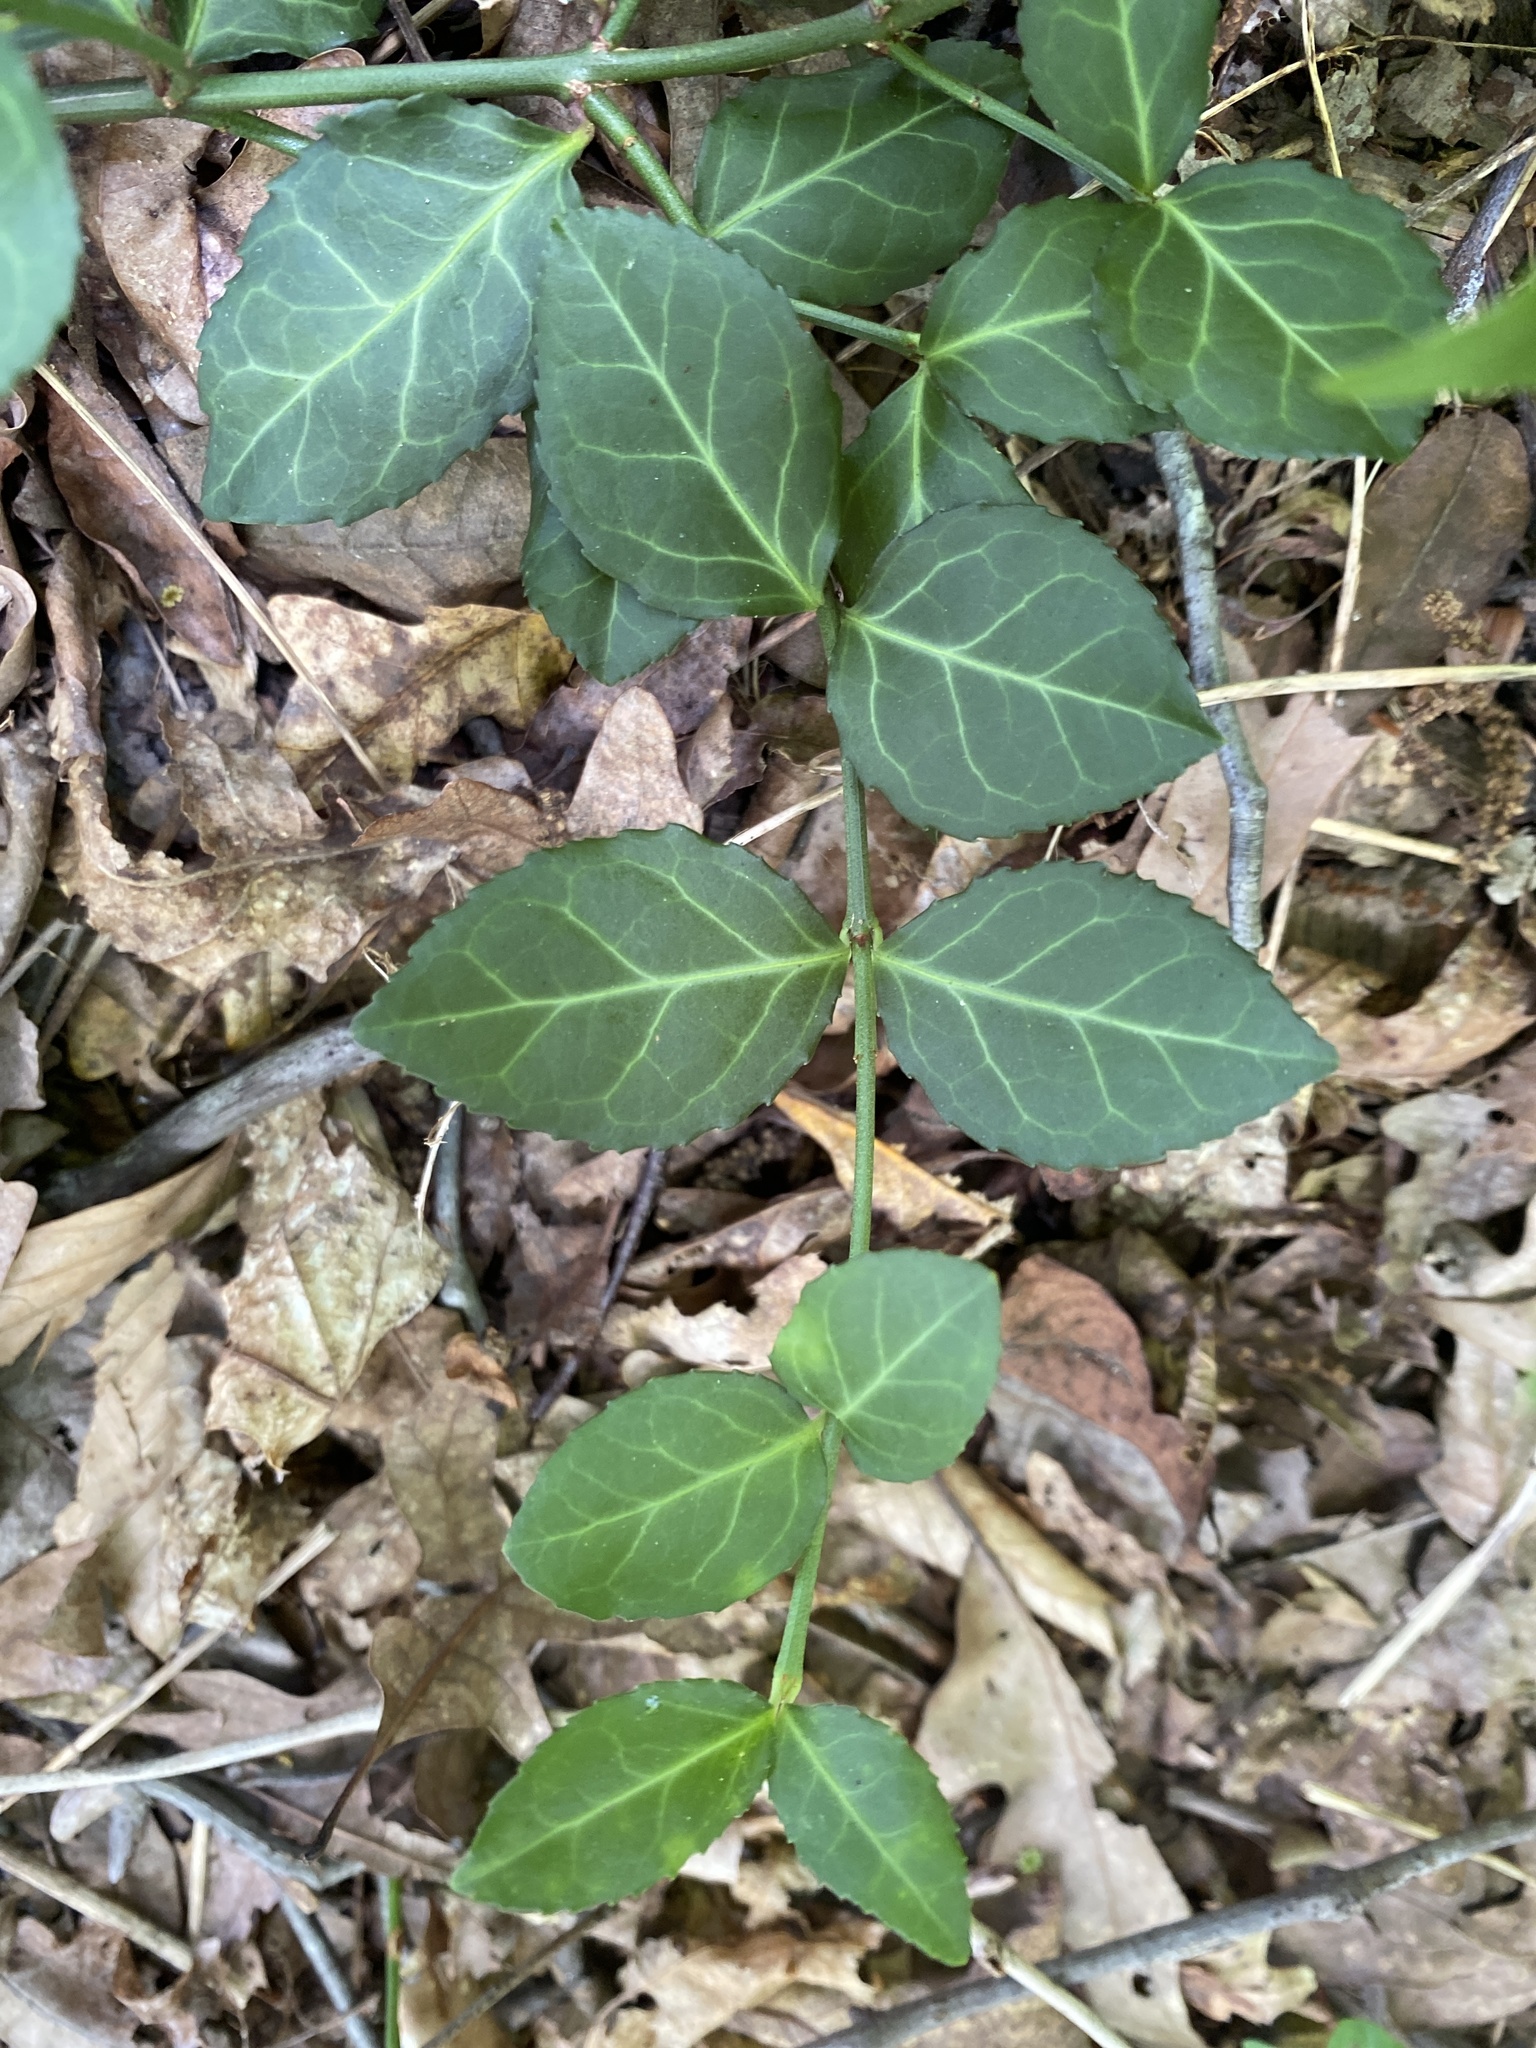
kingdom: Plantae
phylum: Tracheophyta
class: Magnoliopsida
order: Celastrales
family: Celastraceae
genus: Euonymus
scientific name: Euonymus fortunei
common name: Climbing euonymus
